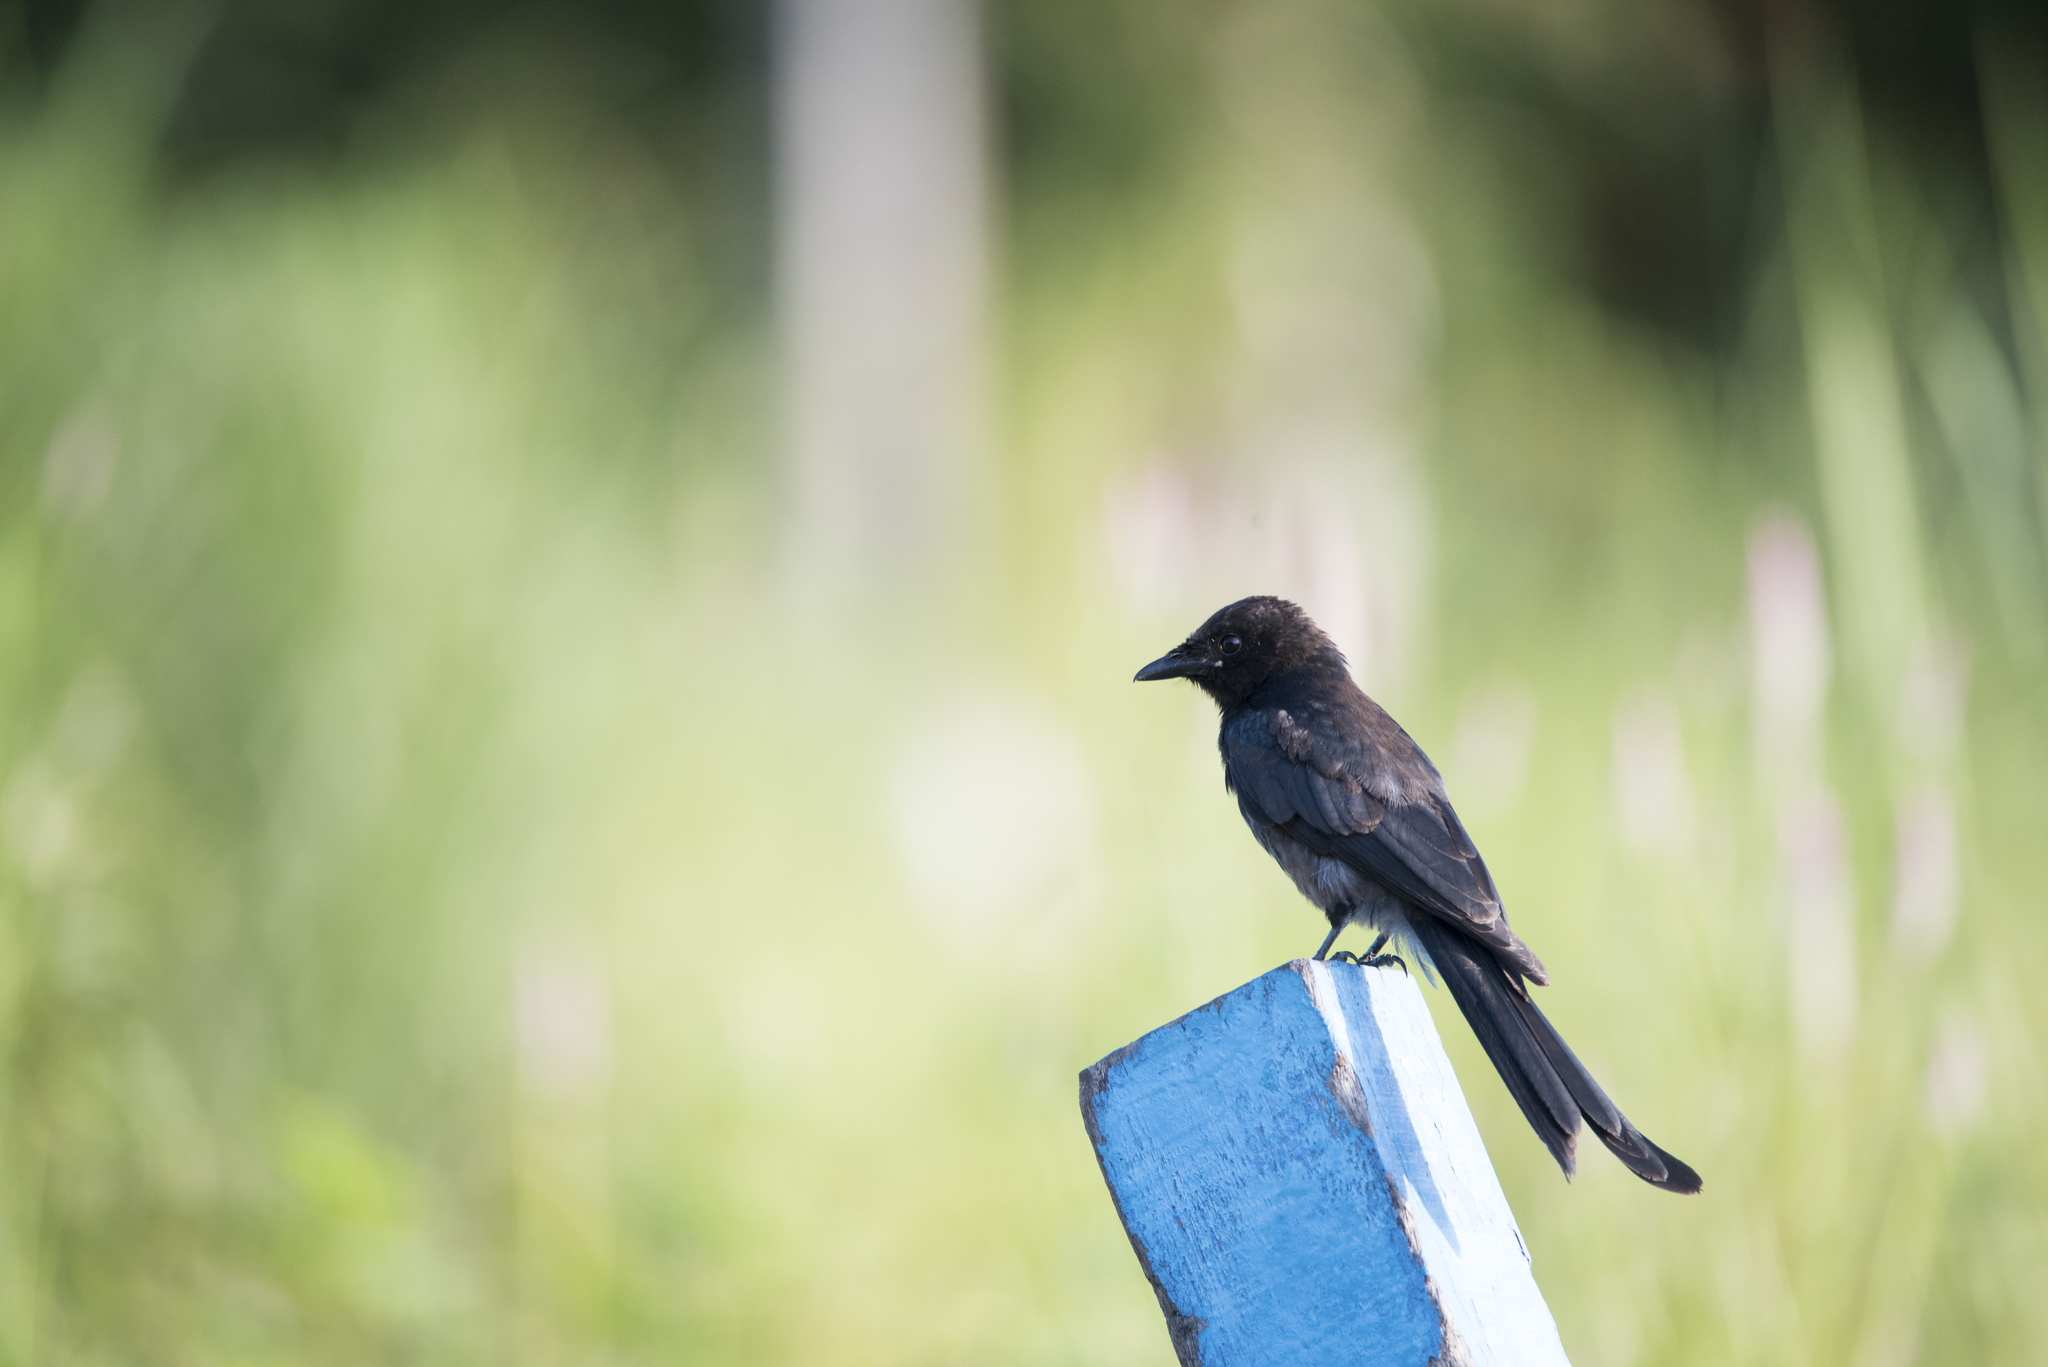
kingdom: Animalia
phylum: Chordata
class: Aves
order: Passeriformes
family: Dicruridae
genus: Dicrurus
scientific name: Dicrurus macrocercus
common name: Black drongo
